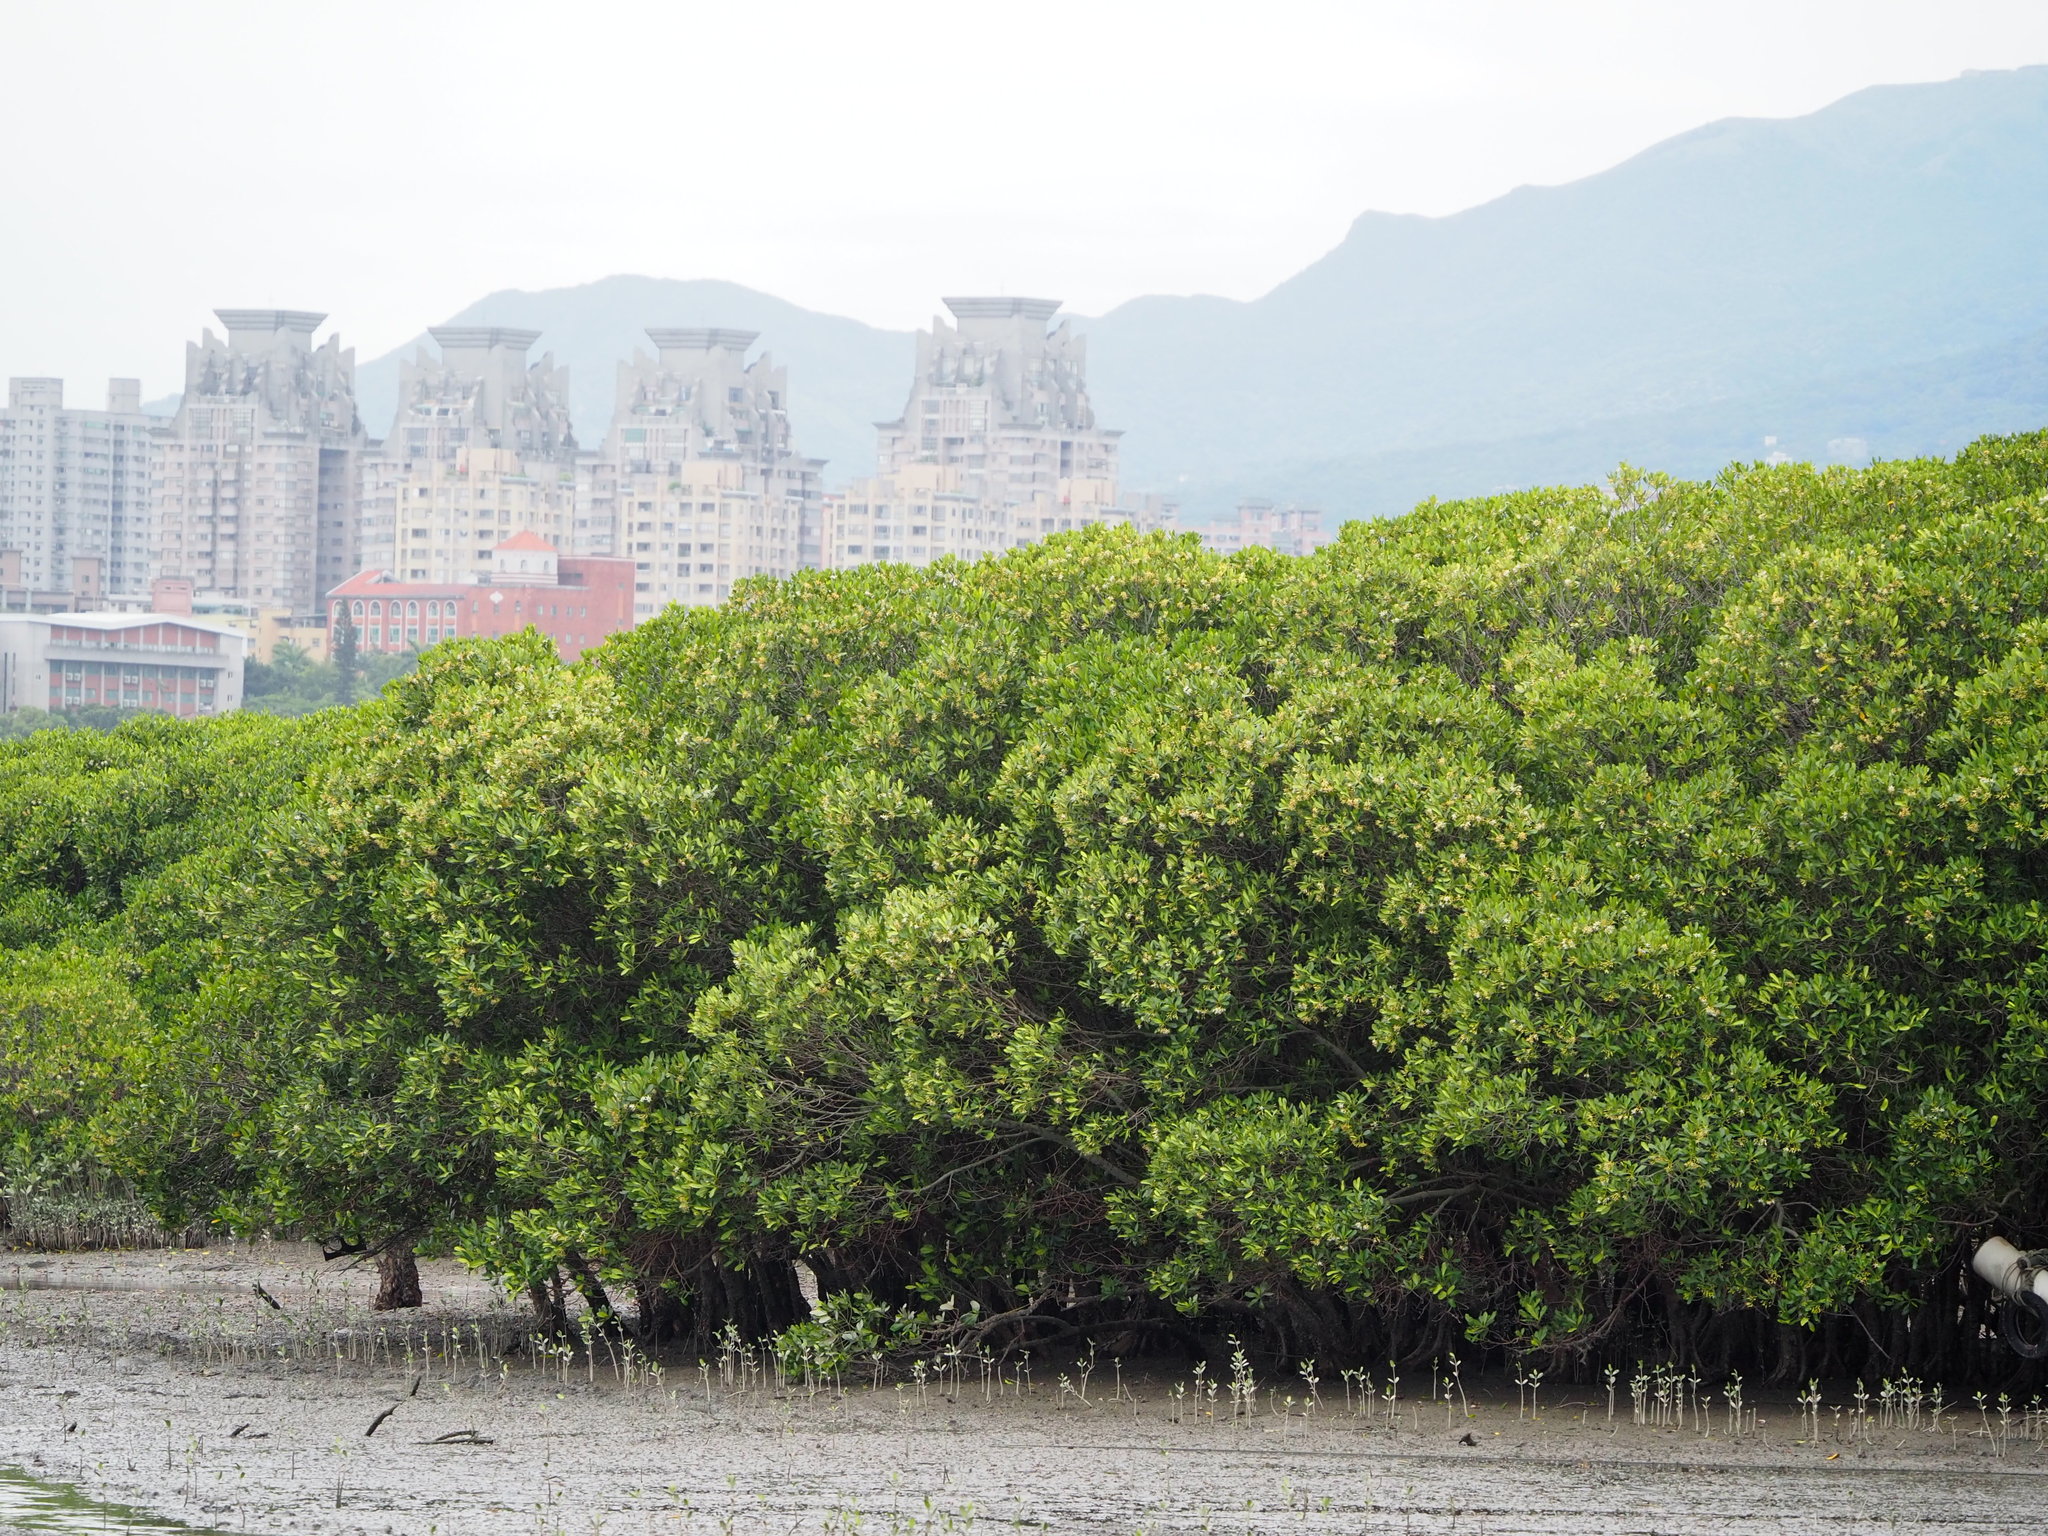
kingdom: Plantae
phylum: Tracheophyta
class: Magnoliopsida
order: Malpighiales
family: Rhizophoraceae
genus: Kandelia
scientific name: Kandelia obovata
